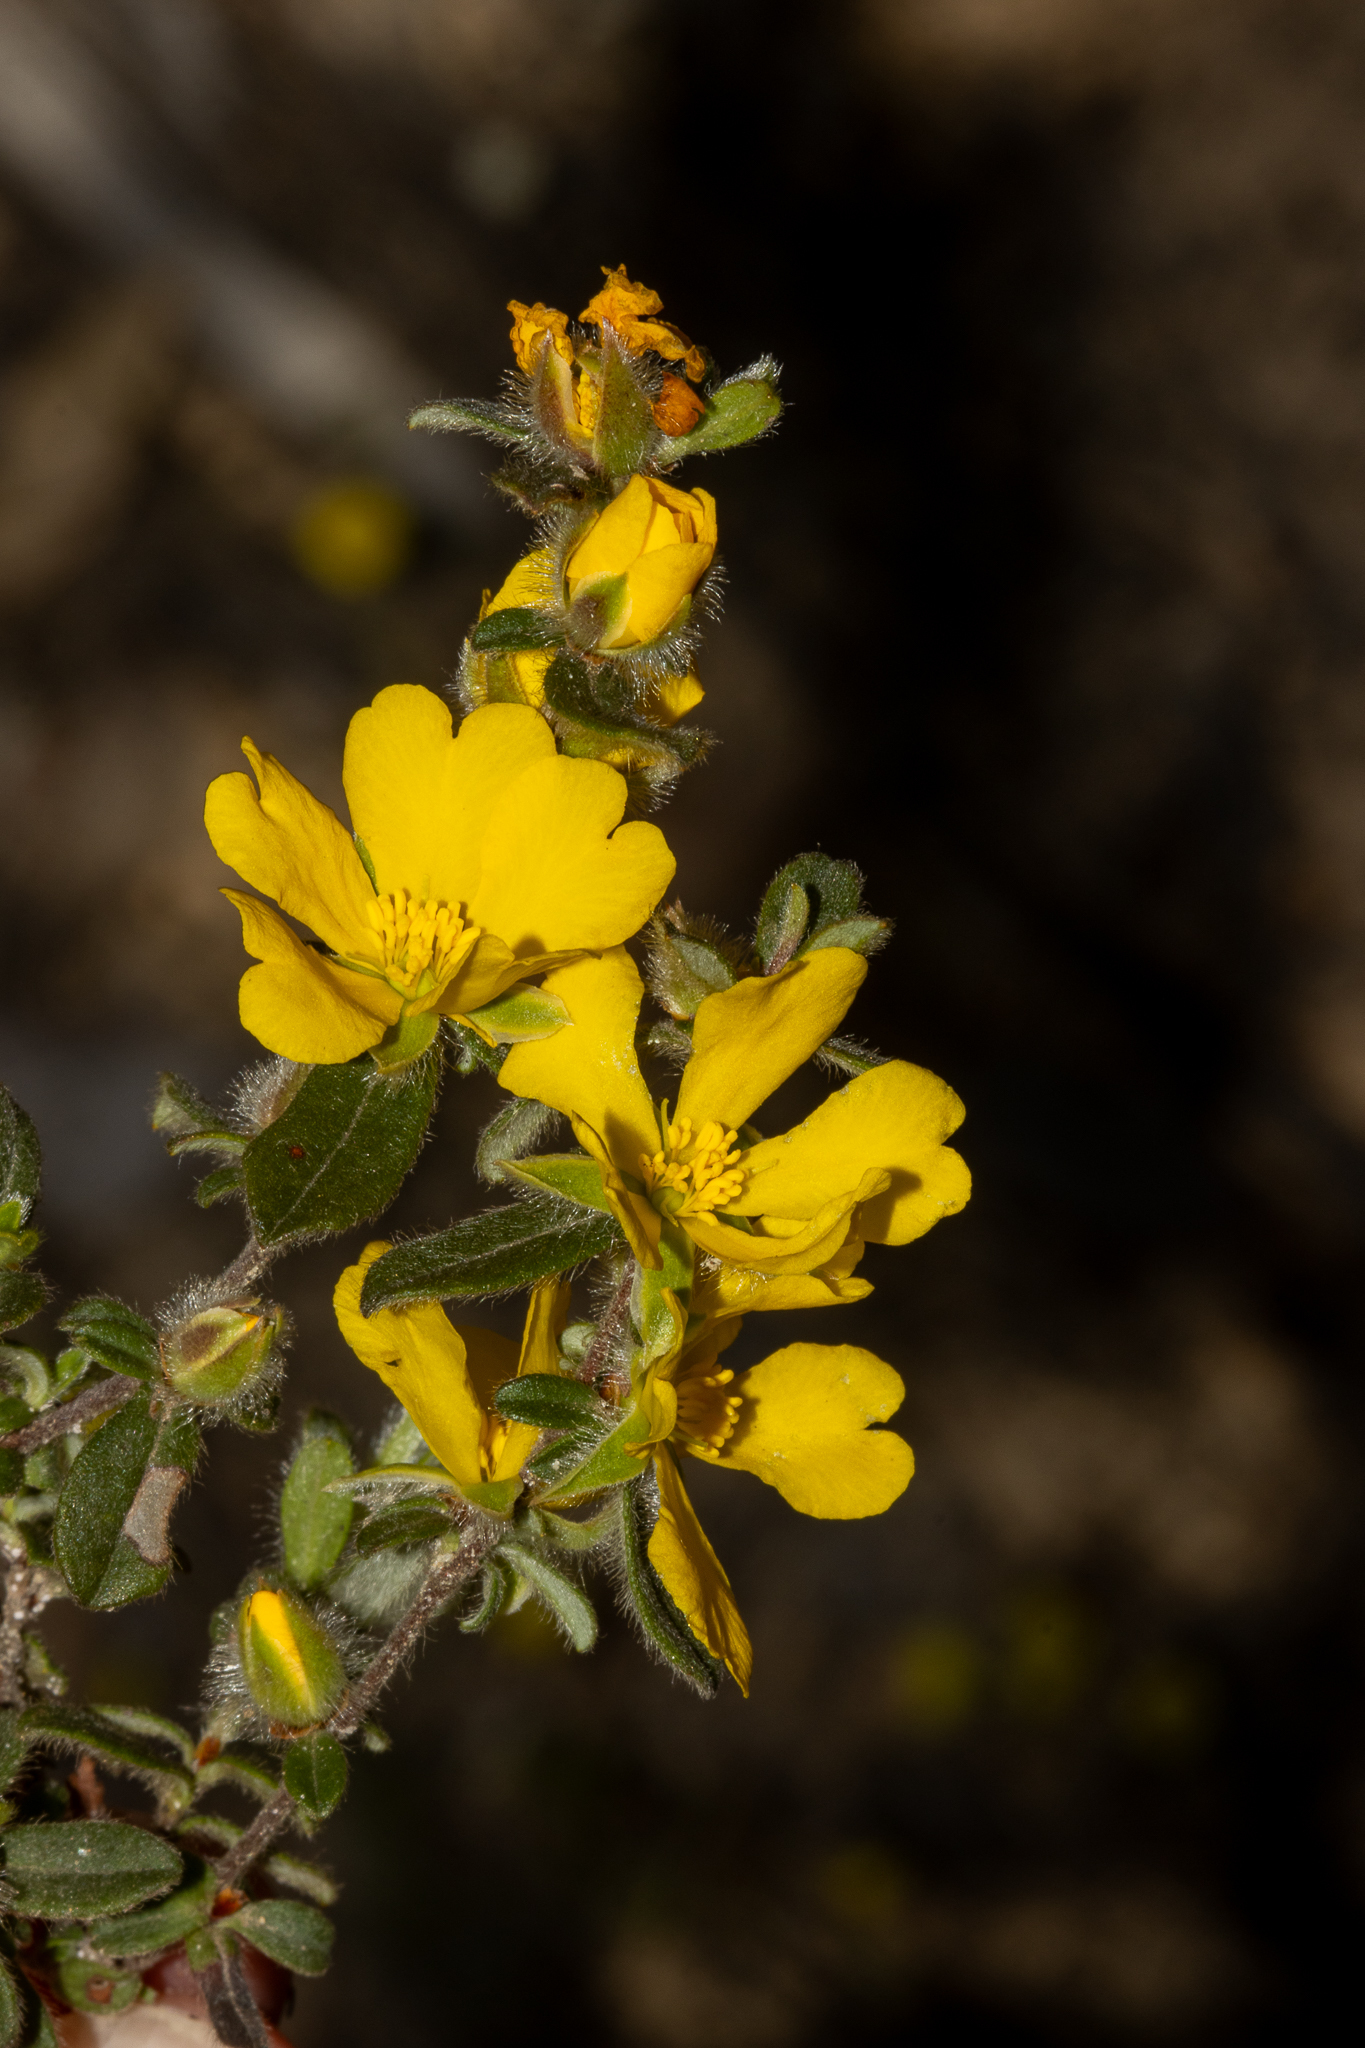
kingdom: Plantae
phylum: Tracheophyta
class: Magnoliopsida
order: Dilleniales
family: Dilleniaceae
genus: Hibbertia
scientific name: Hibbertia commutata
